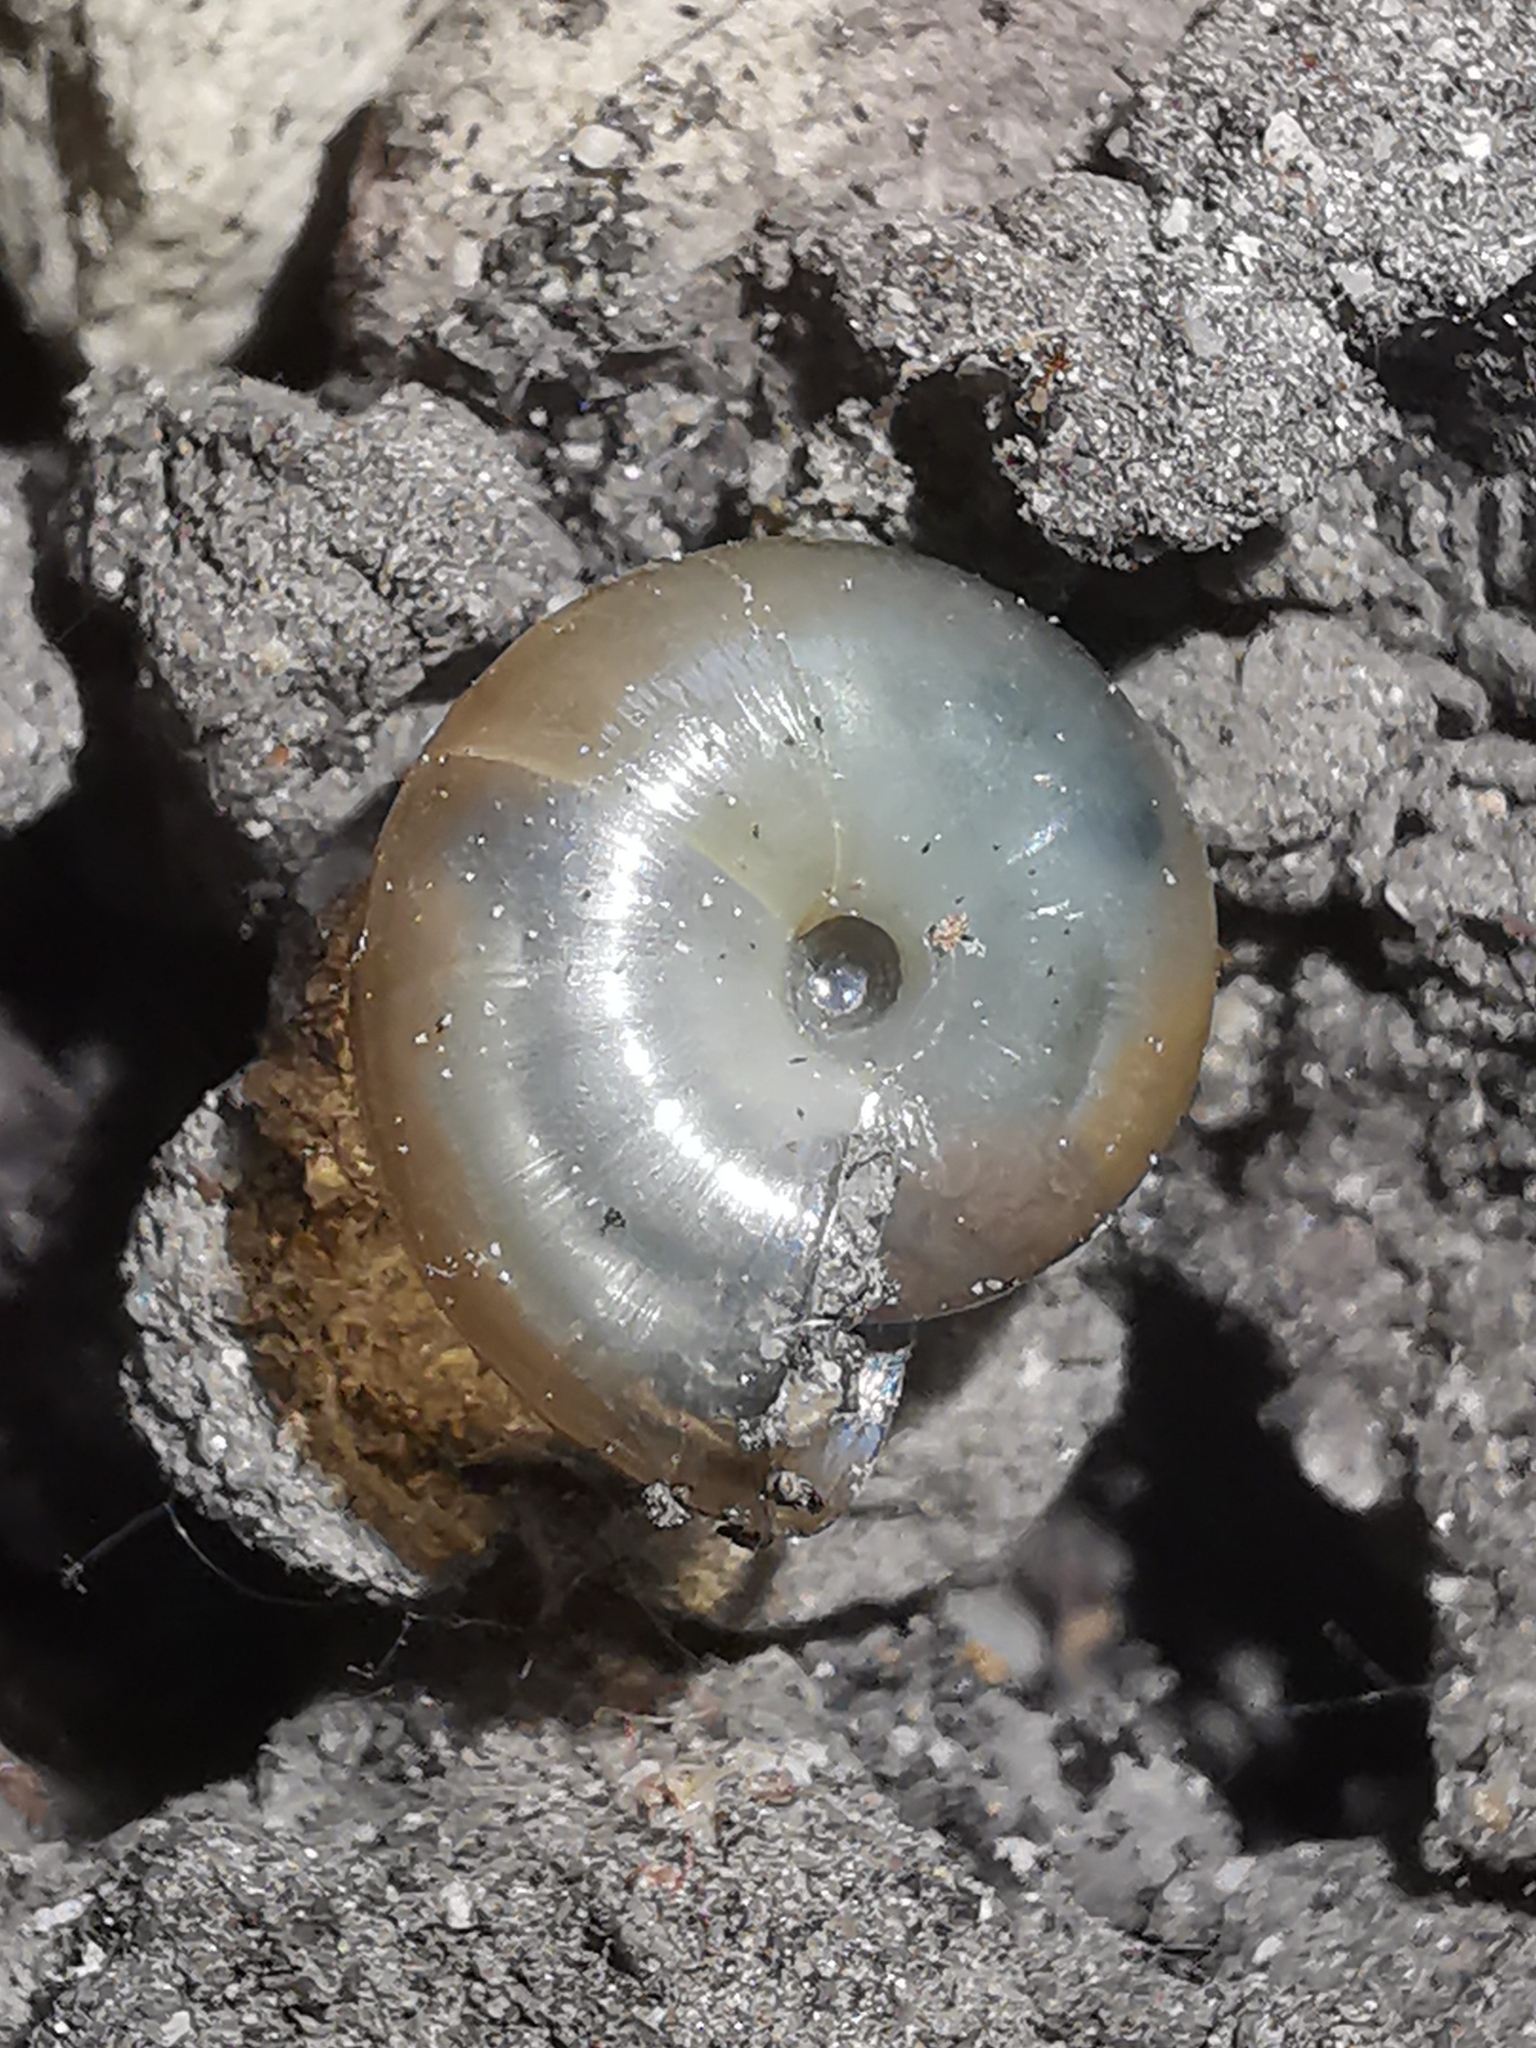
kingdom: Animalia
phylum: Mollusca
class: Gastropoda
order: Stylommatophora
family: Oxychilidae
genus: Eopolita
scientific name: Eopolita protensa
